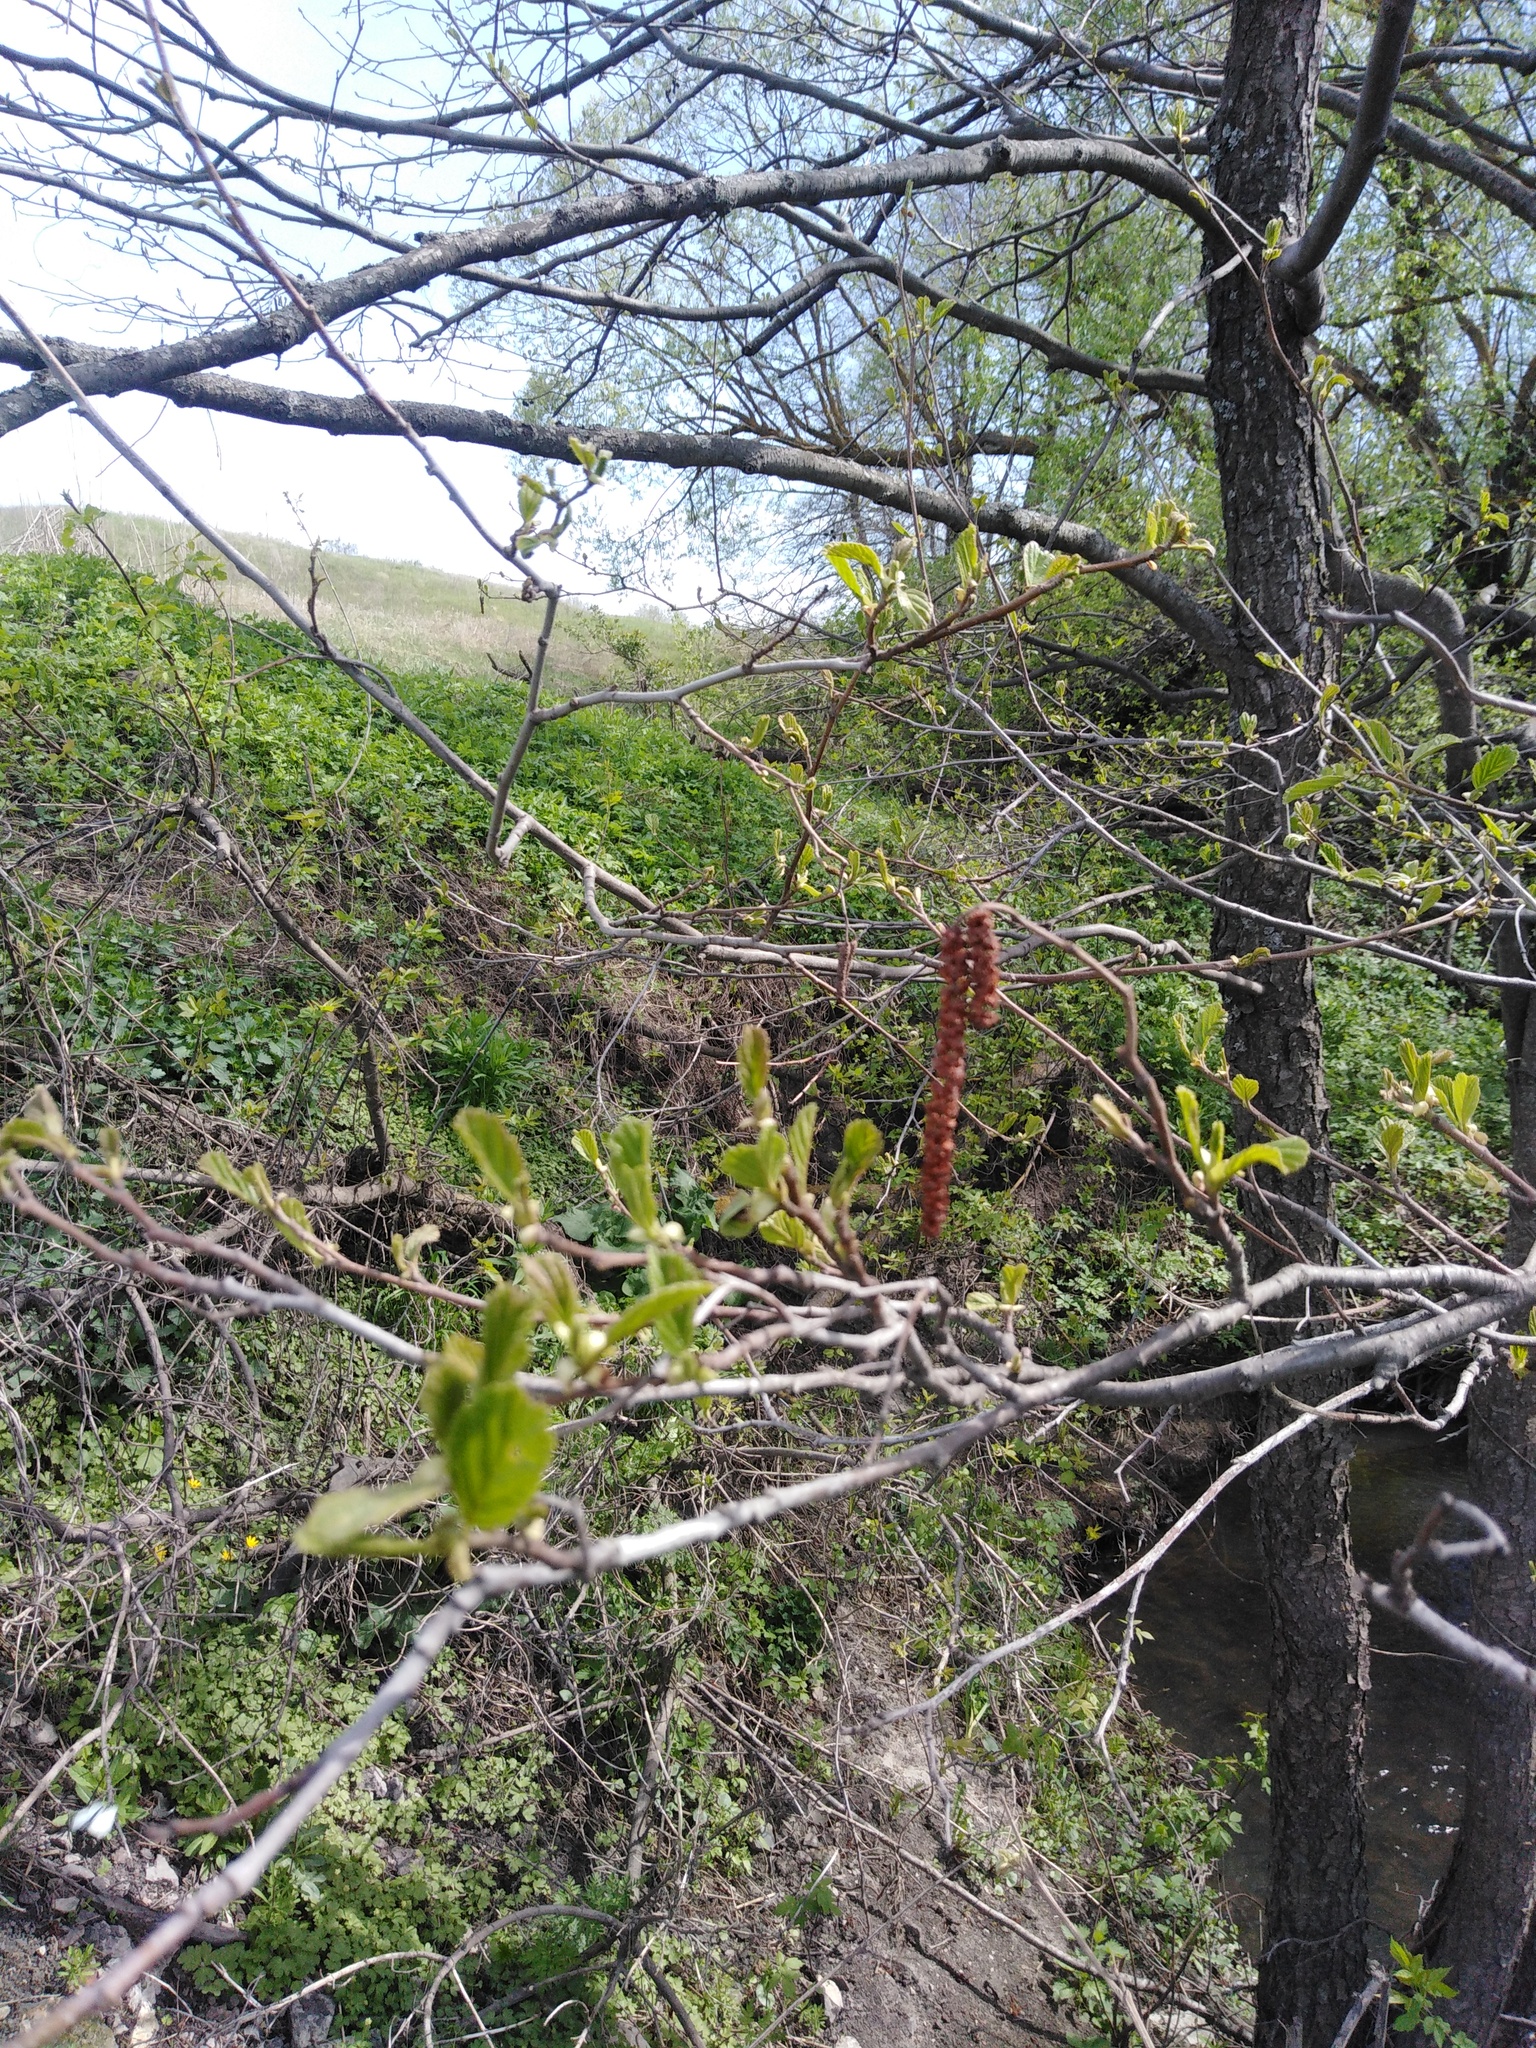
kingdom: Plantae
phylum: Tracheophyta
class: Magnoliopsida
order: Fagales
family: Betulaceae
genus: Alnus
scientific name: Alnus glutinosa
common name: Black alder
